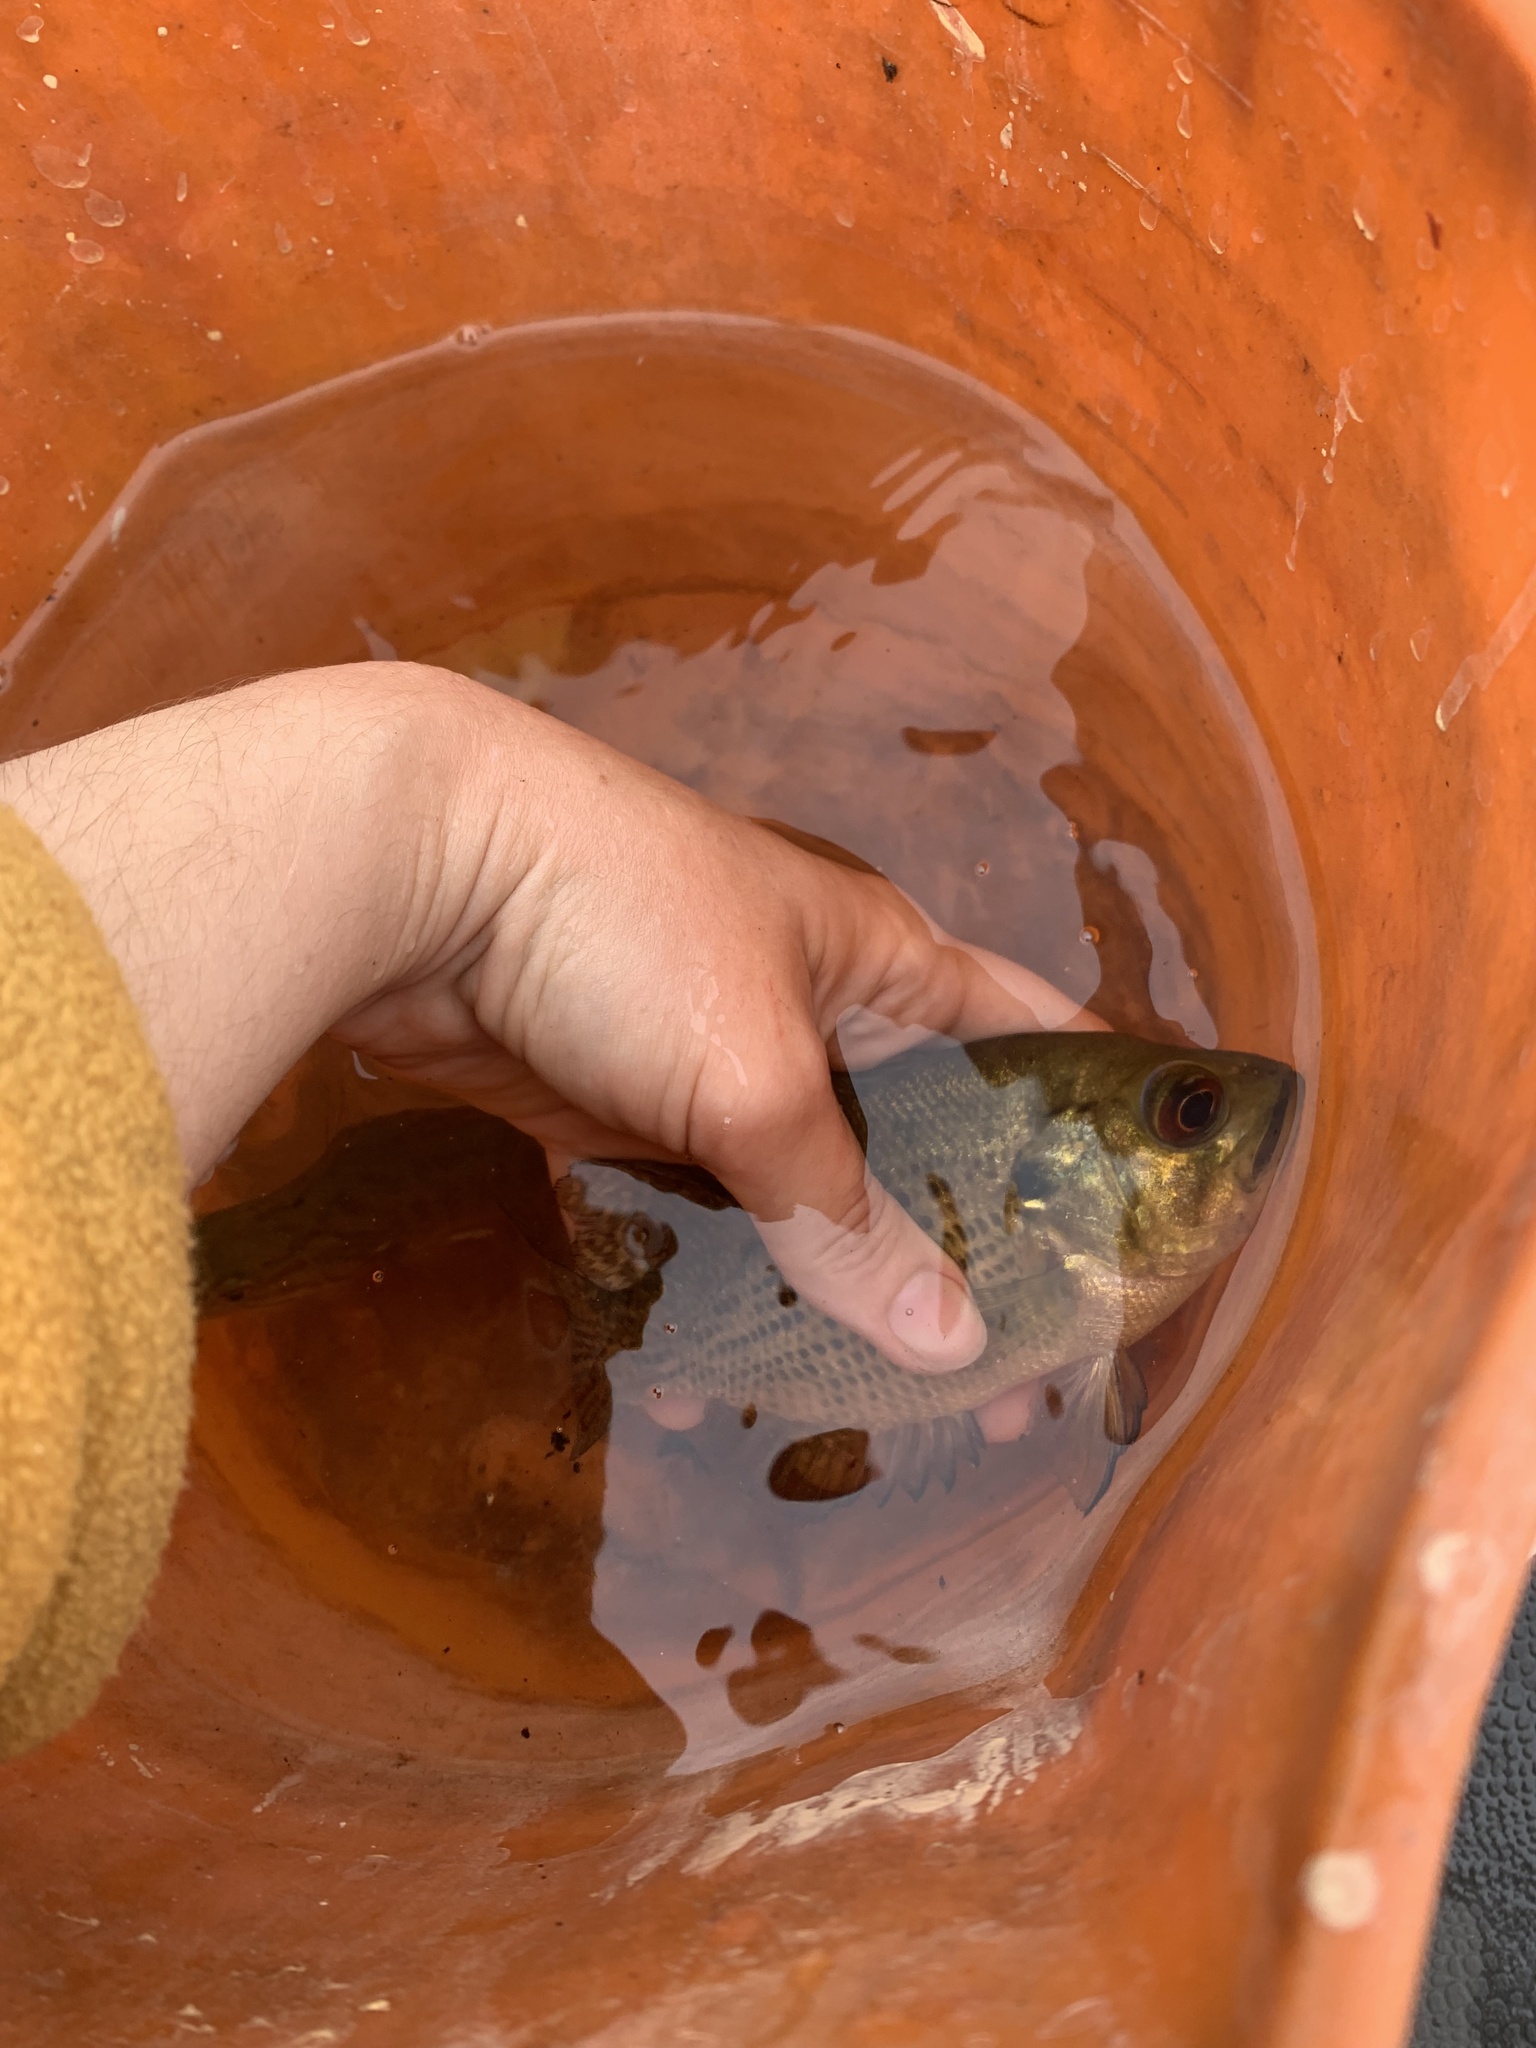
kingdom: Animalia
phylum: Chordata
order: Perciformes
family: Centrarchidae
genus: Ambloplites
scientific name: Ambloplites rupestris
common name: Rock bass
